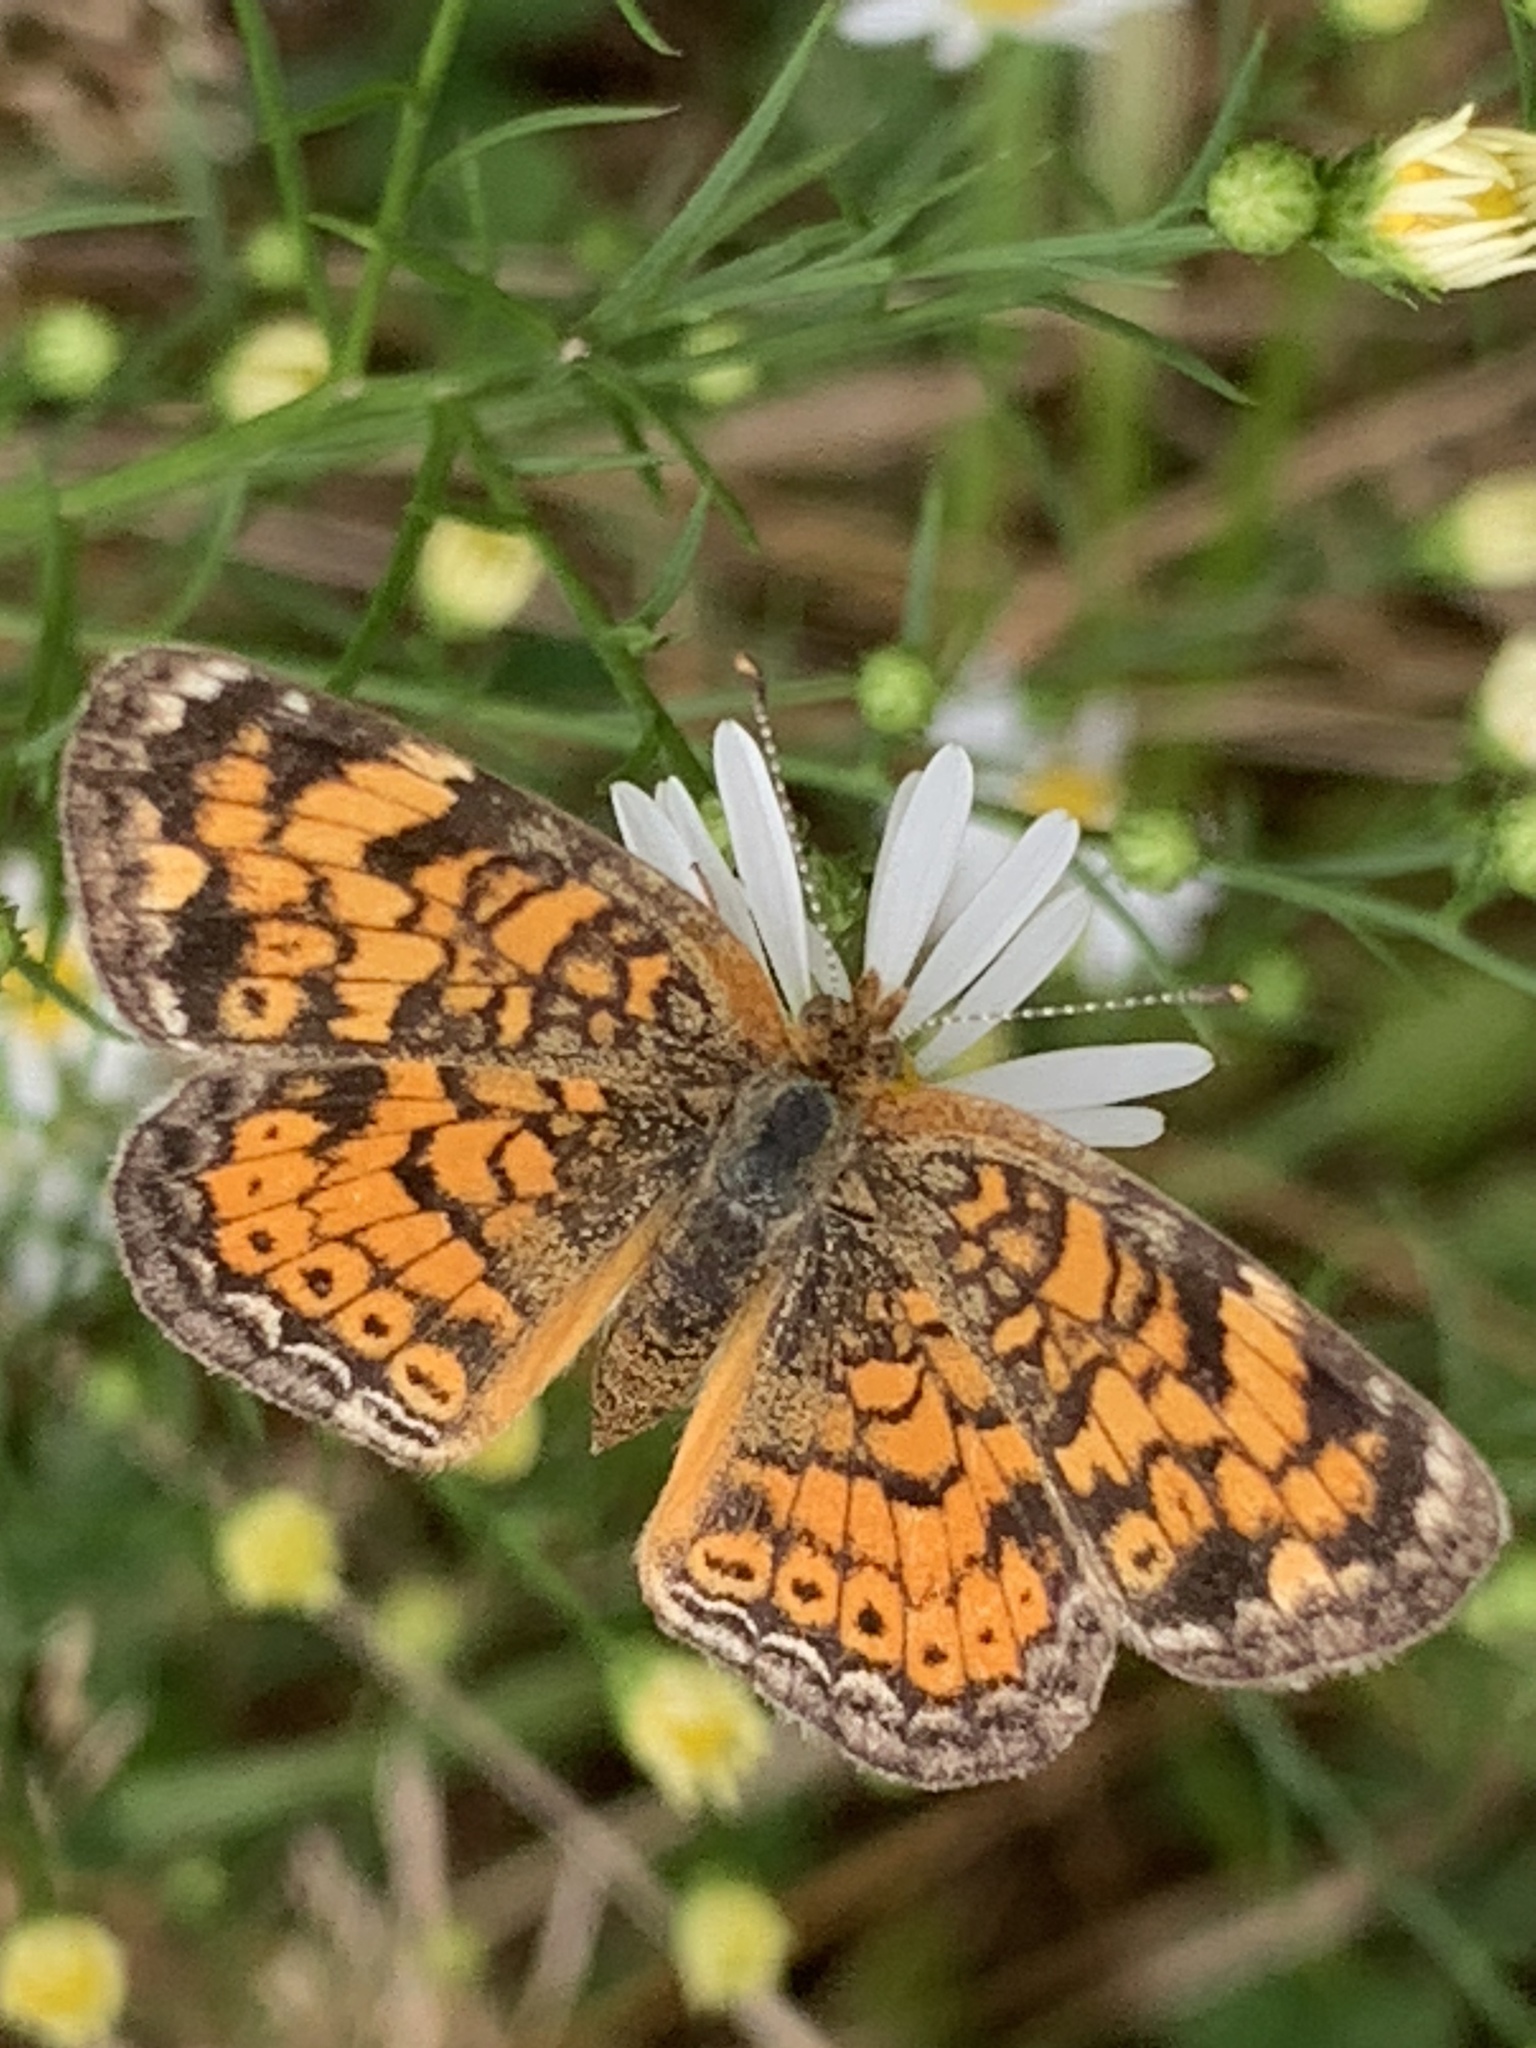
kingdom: Animalia
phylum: Arthropoda
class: Insecta
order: Lepidoptera
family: Nymphalidae
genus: Phyciodes
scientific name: Phyciodes tharos
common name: Pearl crescent
